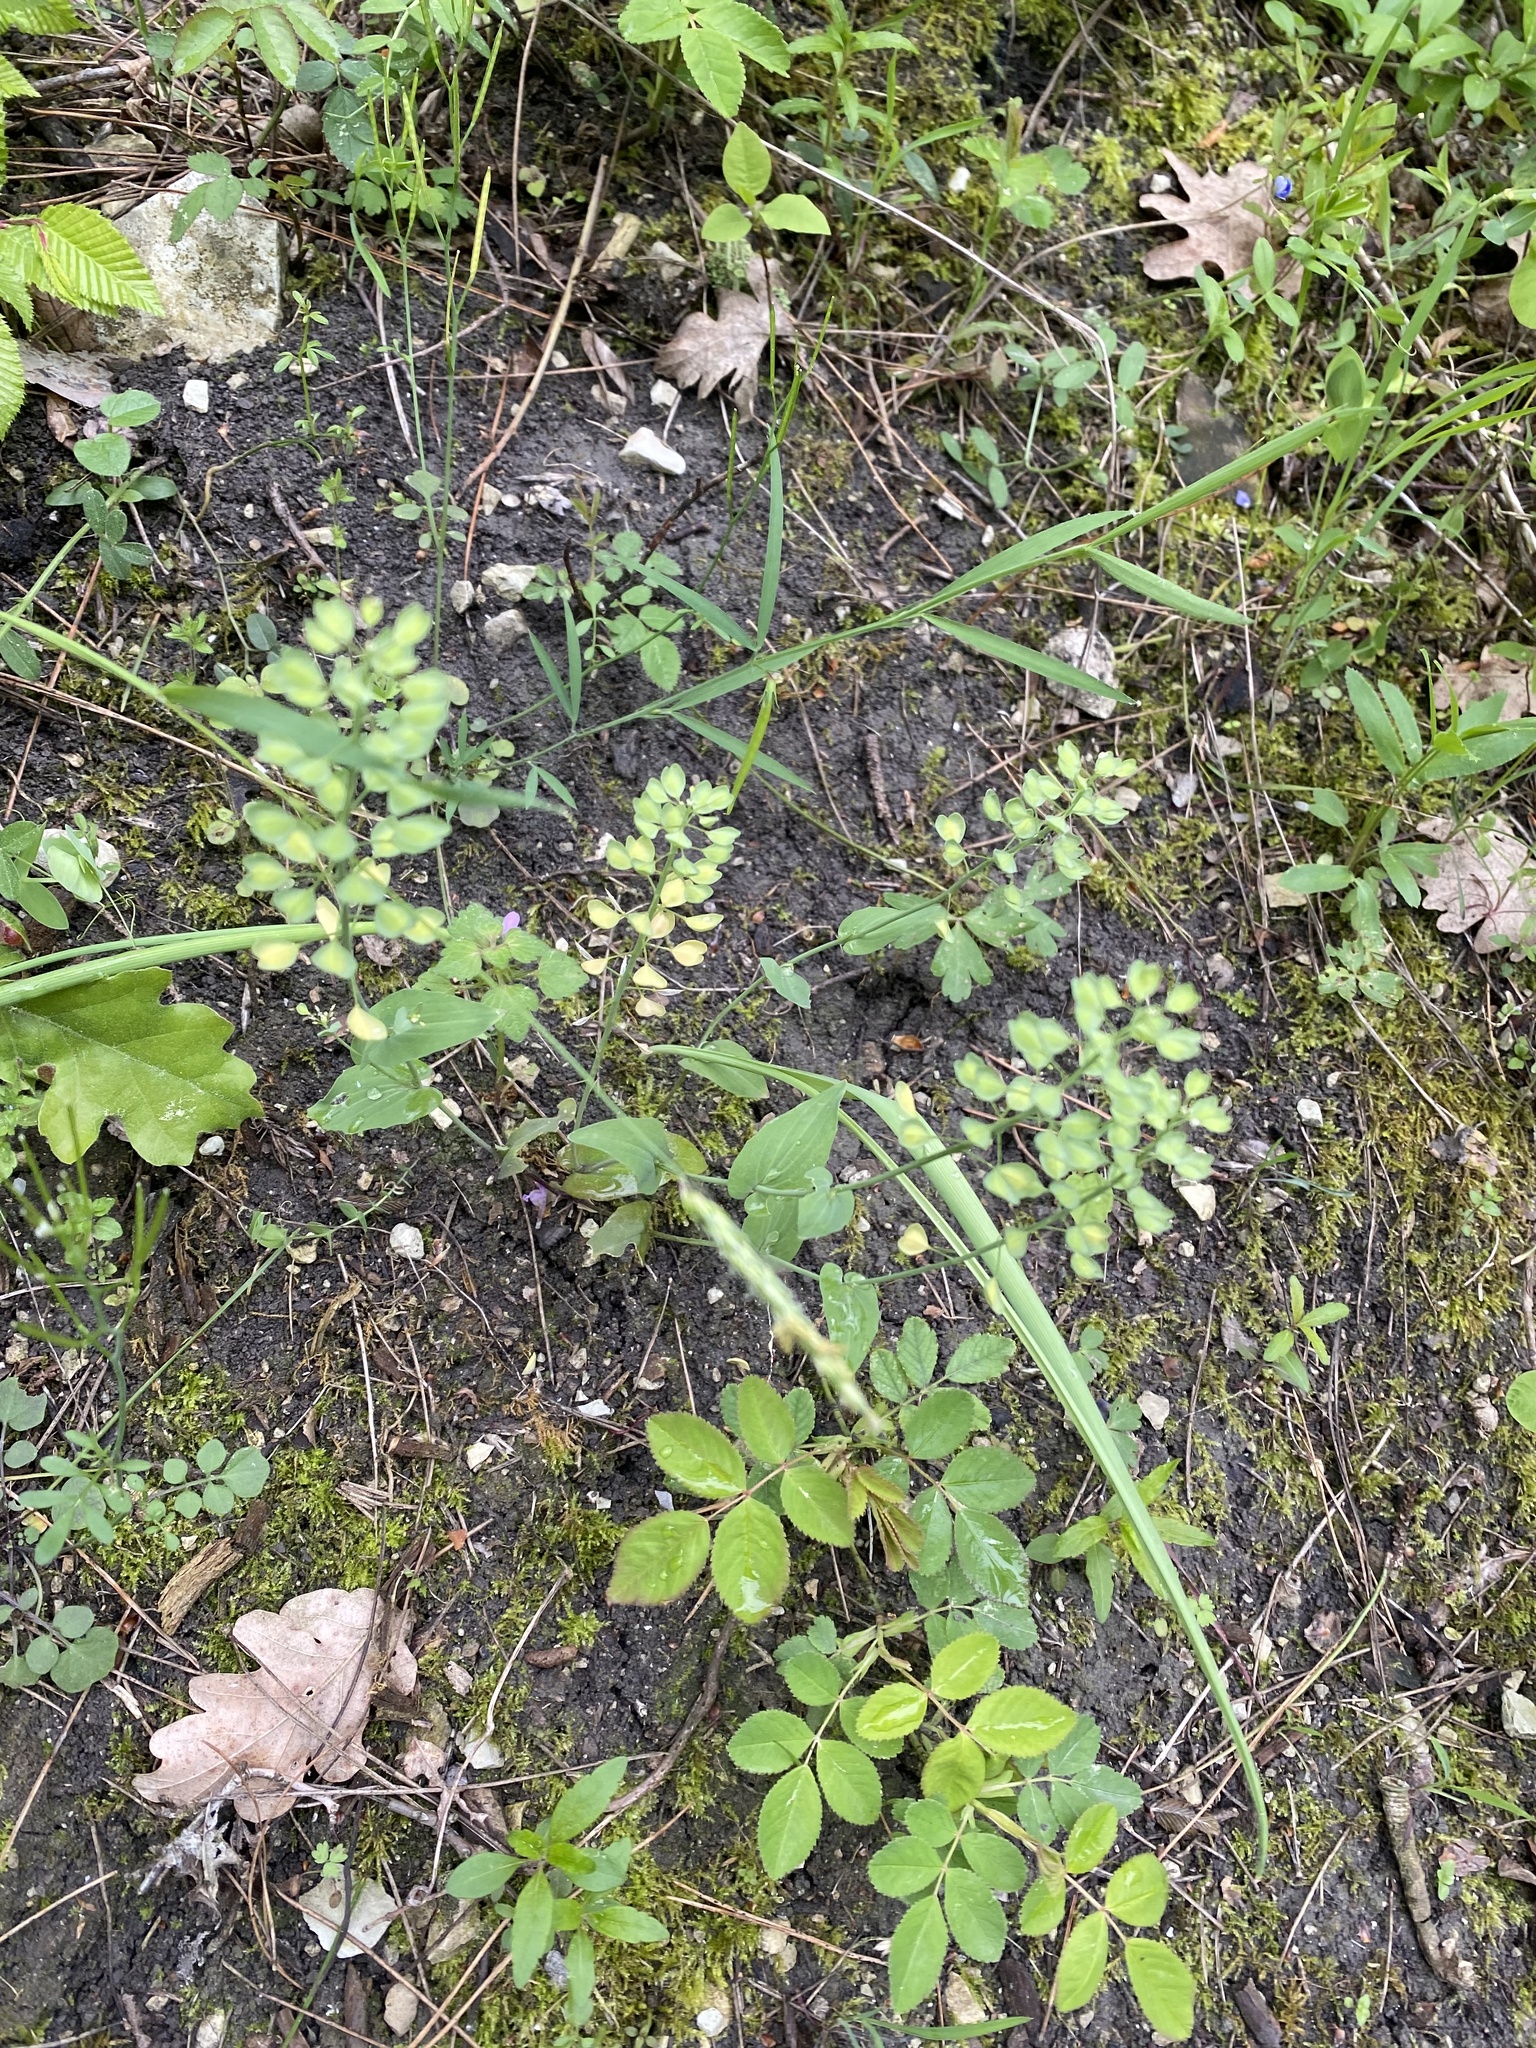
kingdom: Plantae
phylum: Tracheophyta
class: Magnoliopsida
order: Brassicales
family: Brassicaceae
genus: Noccaea
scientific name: Noccaea perfoliata
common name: Perfoliate pennycress
